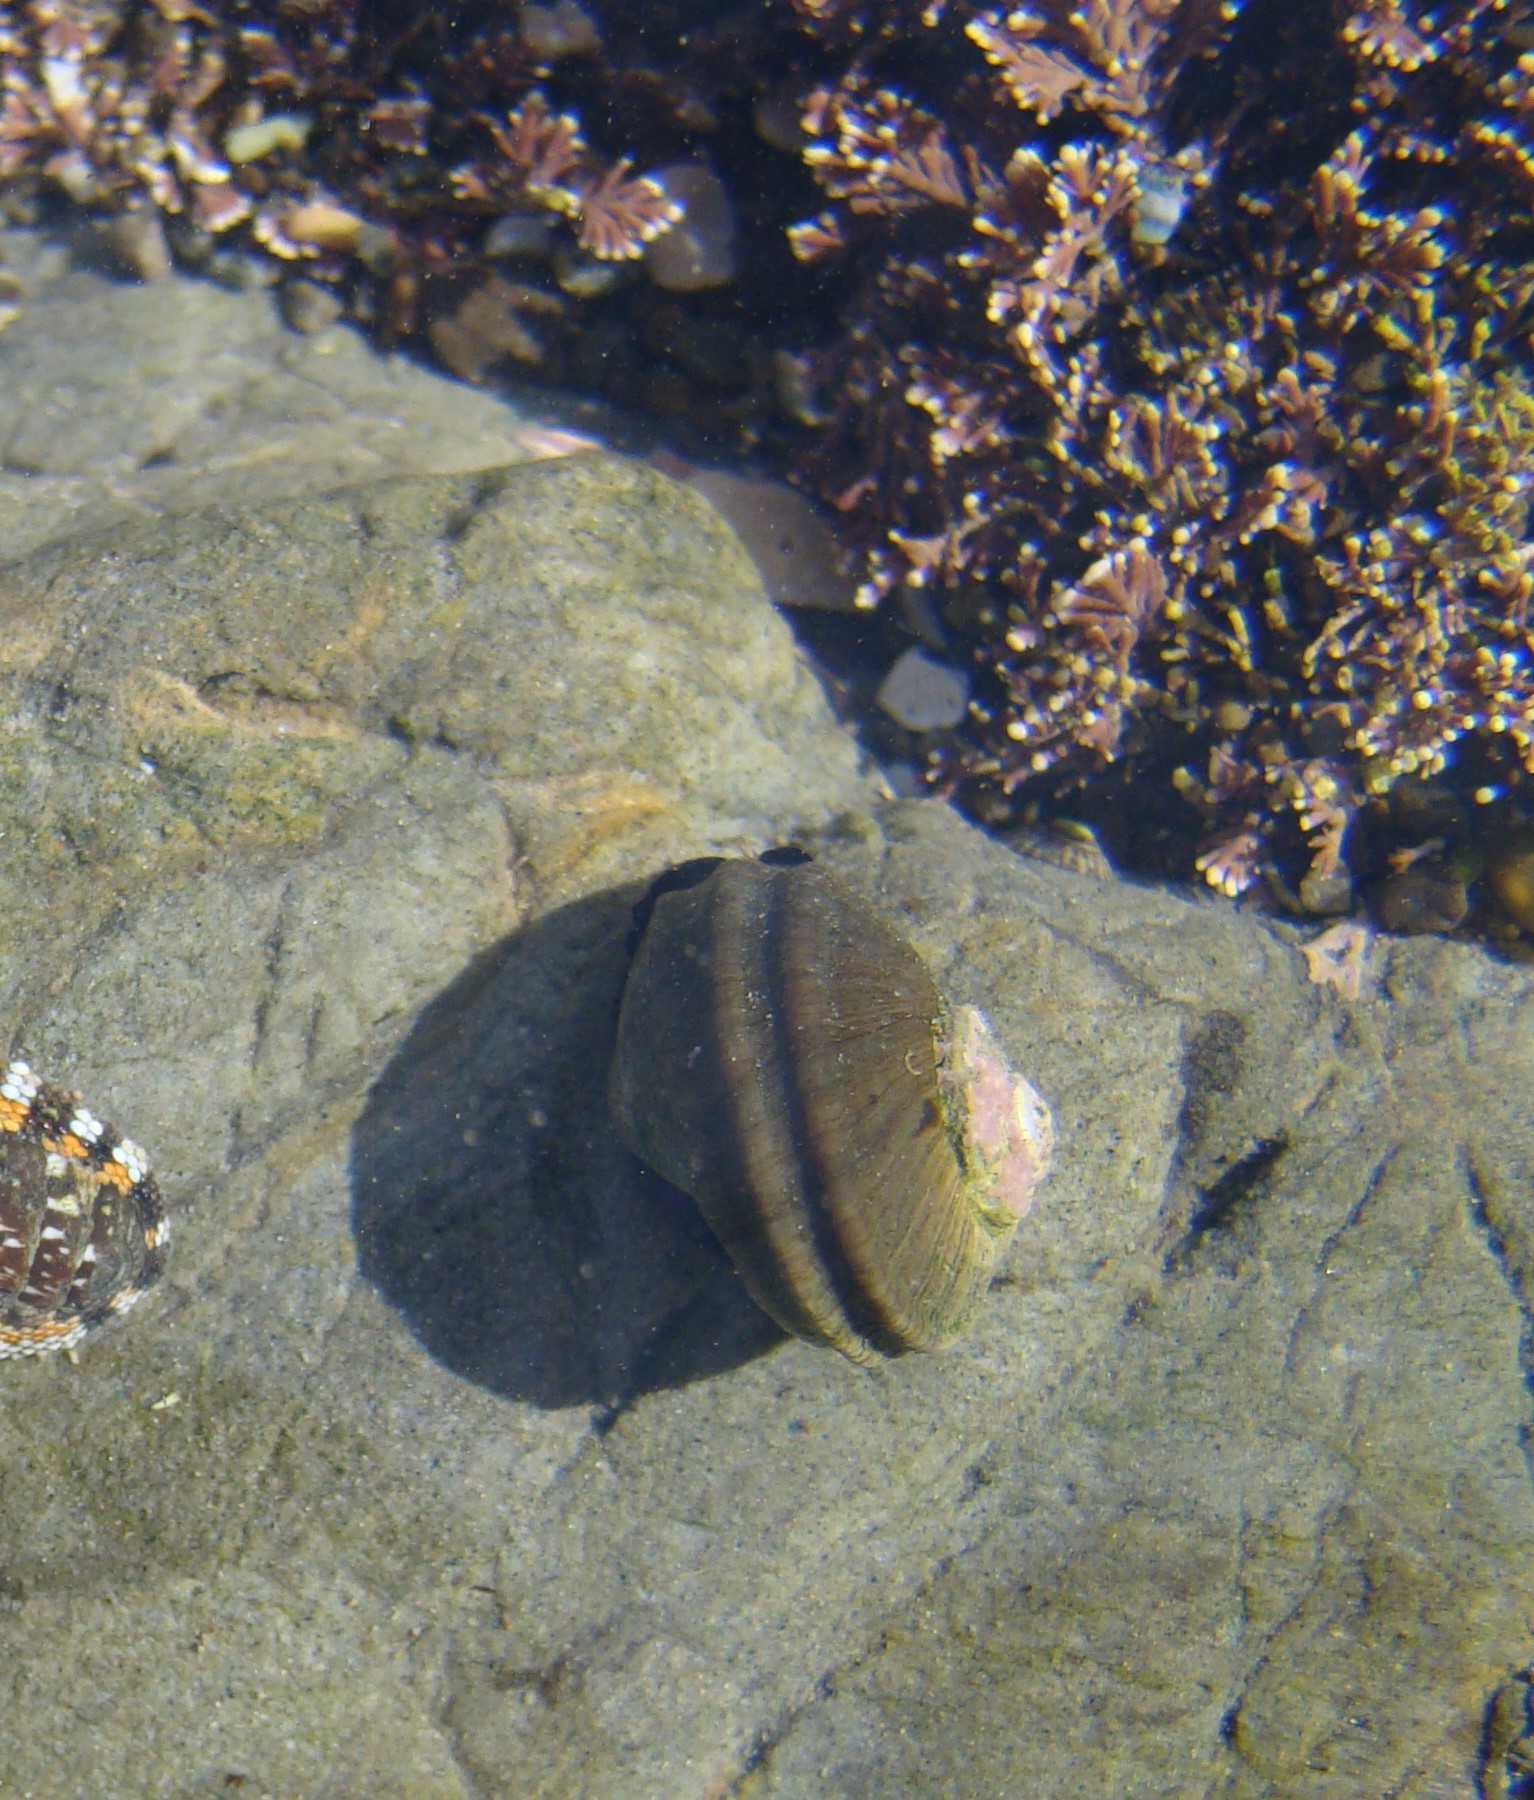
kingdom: Animalia
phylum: Mollusca
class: Gastropoda
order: Trochida
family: Turbinidae
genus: Lunella
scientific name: Lunella smaragda
